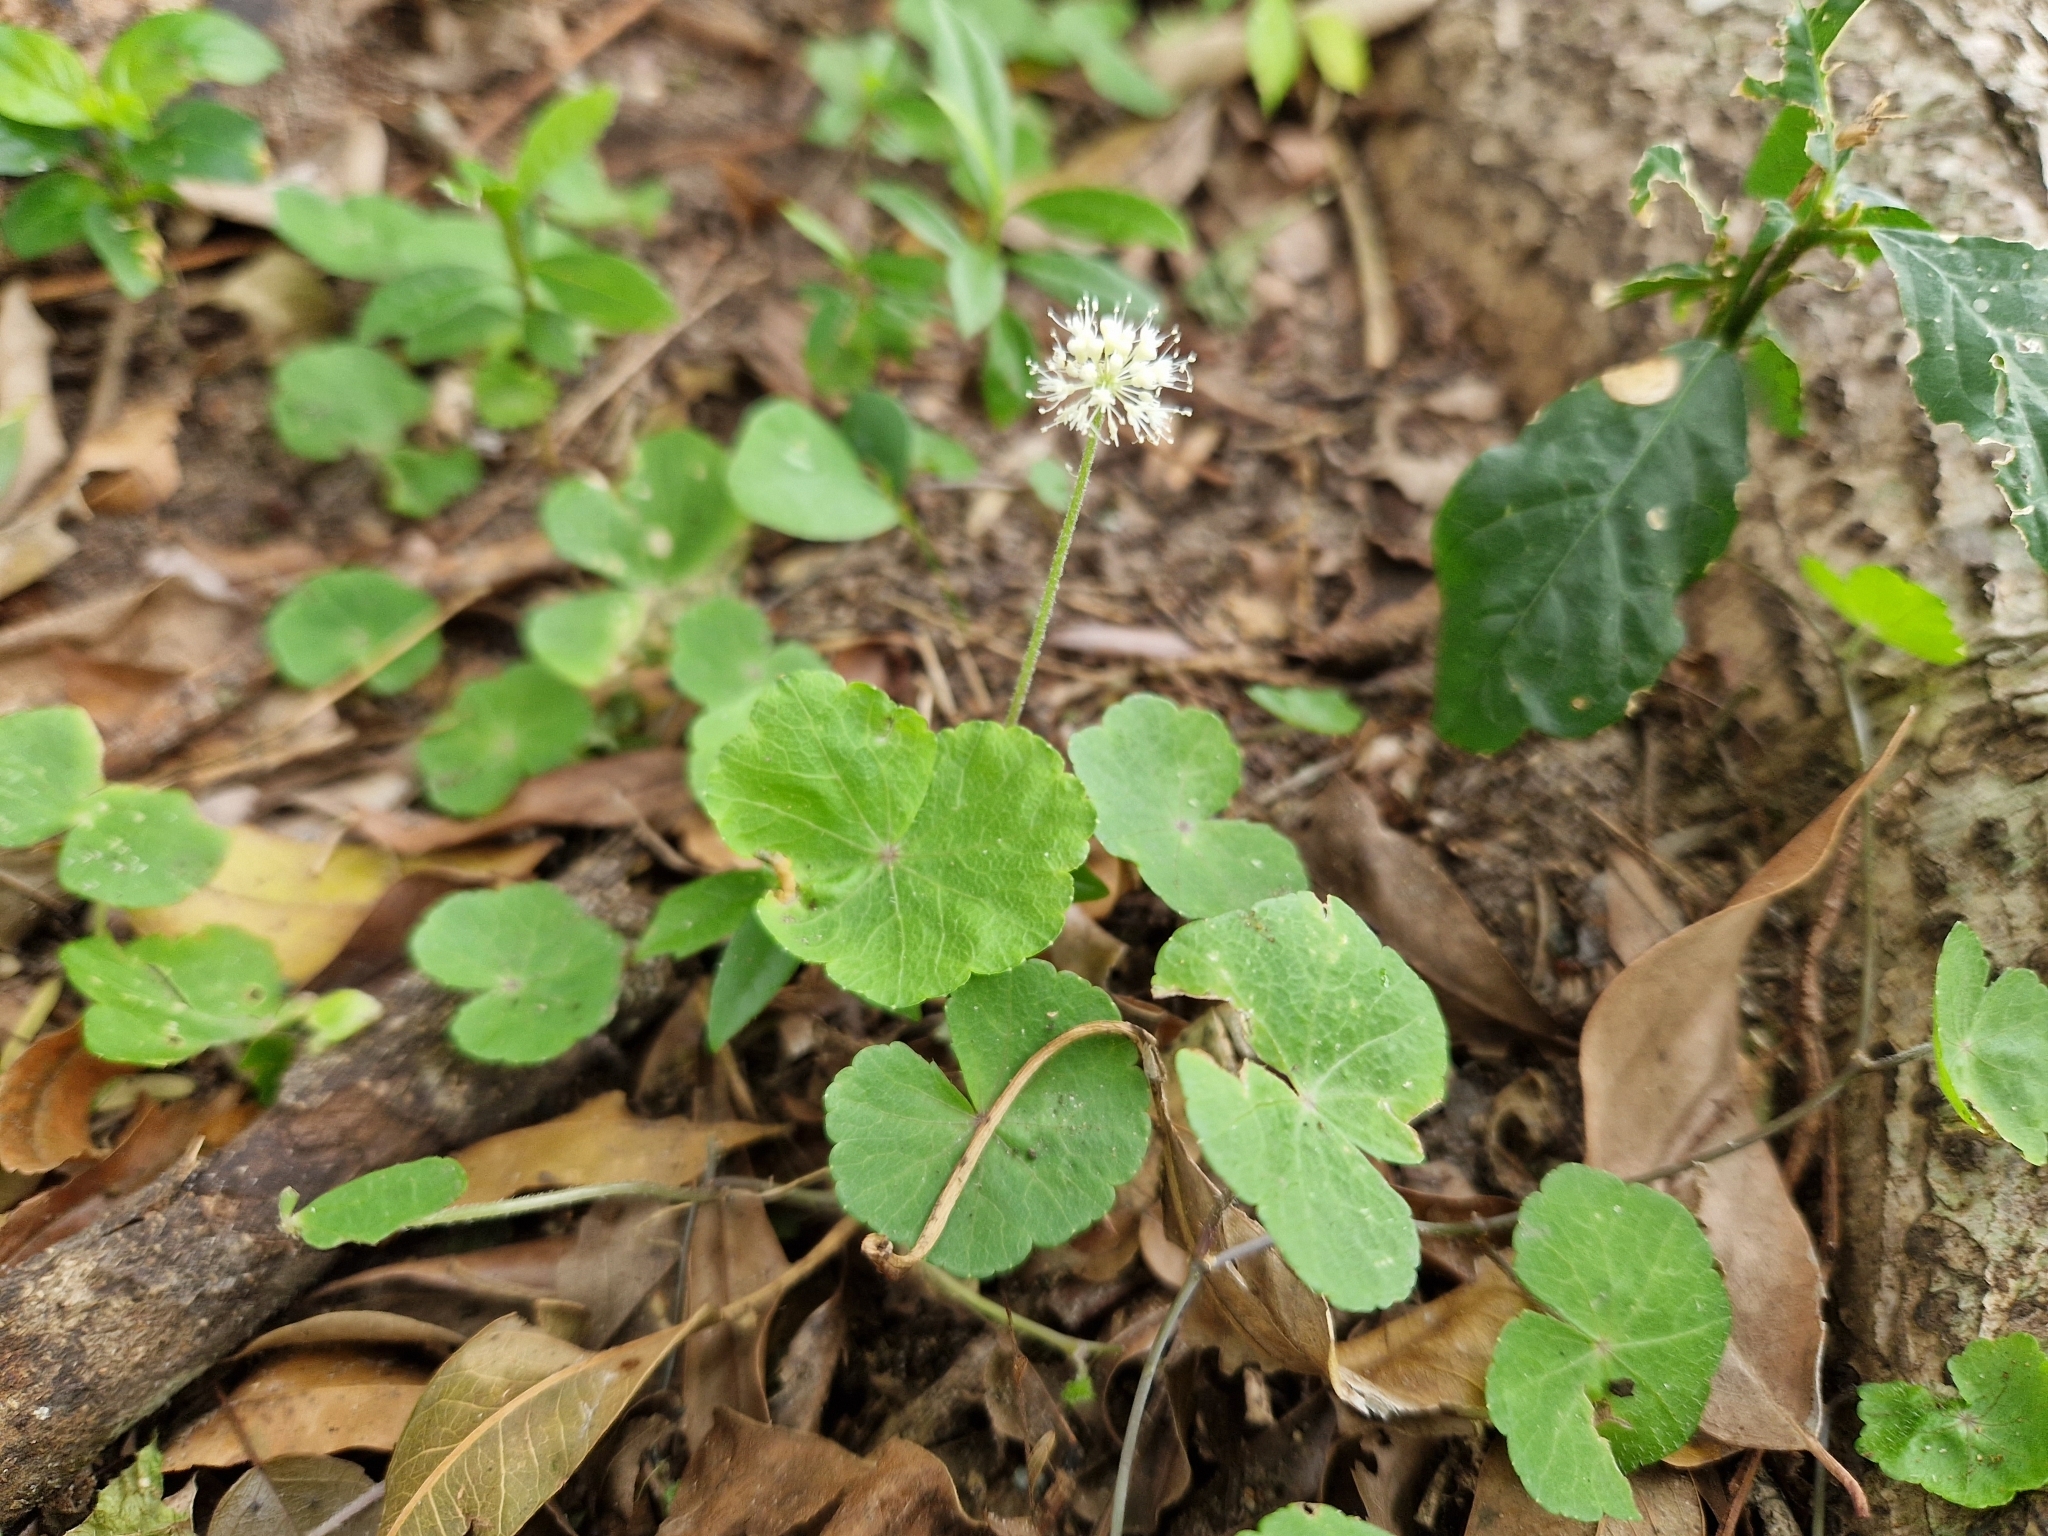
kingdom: Plantae
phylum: Tracheophyta
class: Magnoliopsida
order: Apiales
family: Araliaceae
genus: Hydrocotyle
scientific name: Hydrocotyle leucocephala
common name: Brazilian pennywort
